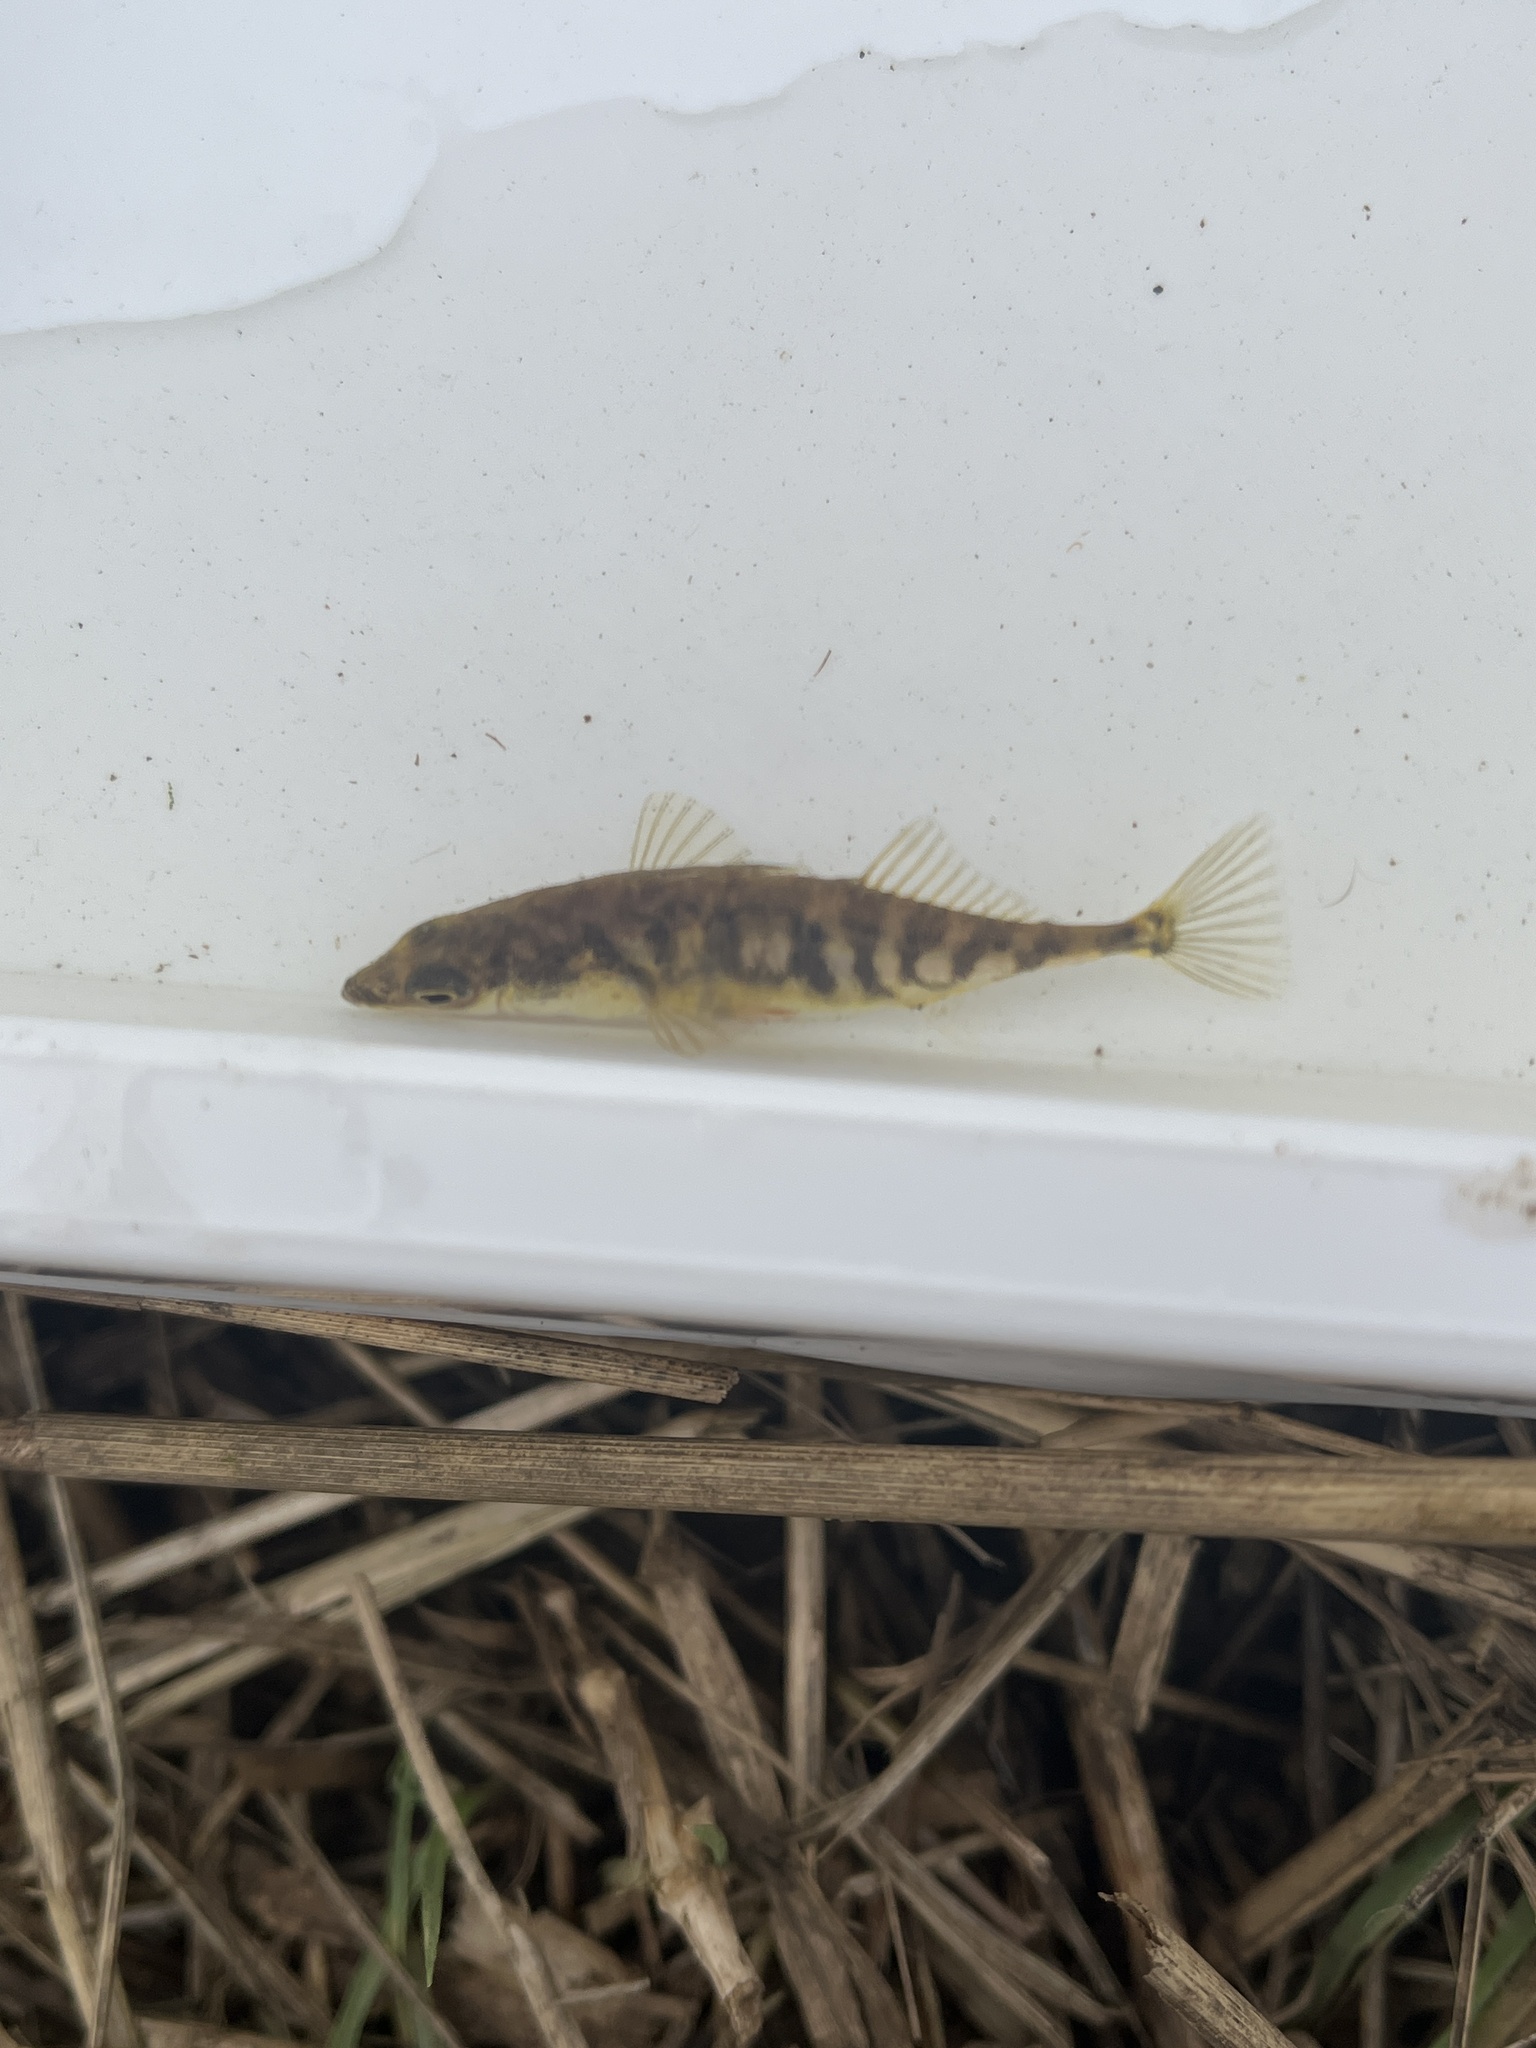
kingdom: Animalia
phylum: Chordata
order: Gasterosteiformes
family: Gasterosteidae
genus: Gasterosteus
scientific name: Gasterosteus aculeatus
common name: Three-spined stickleback
